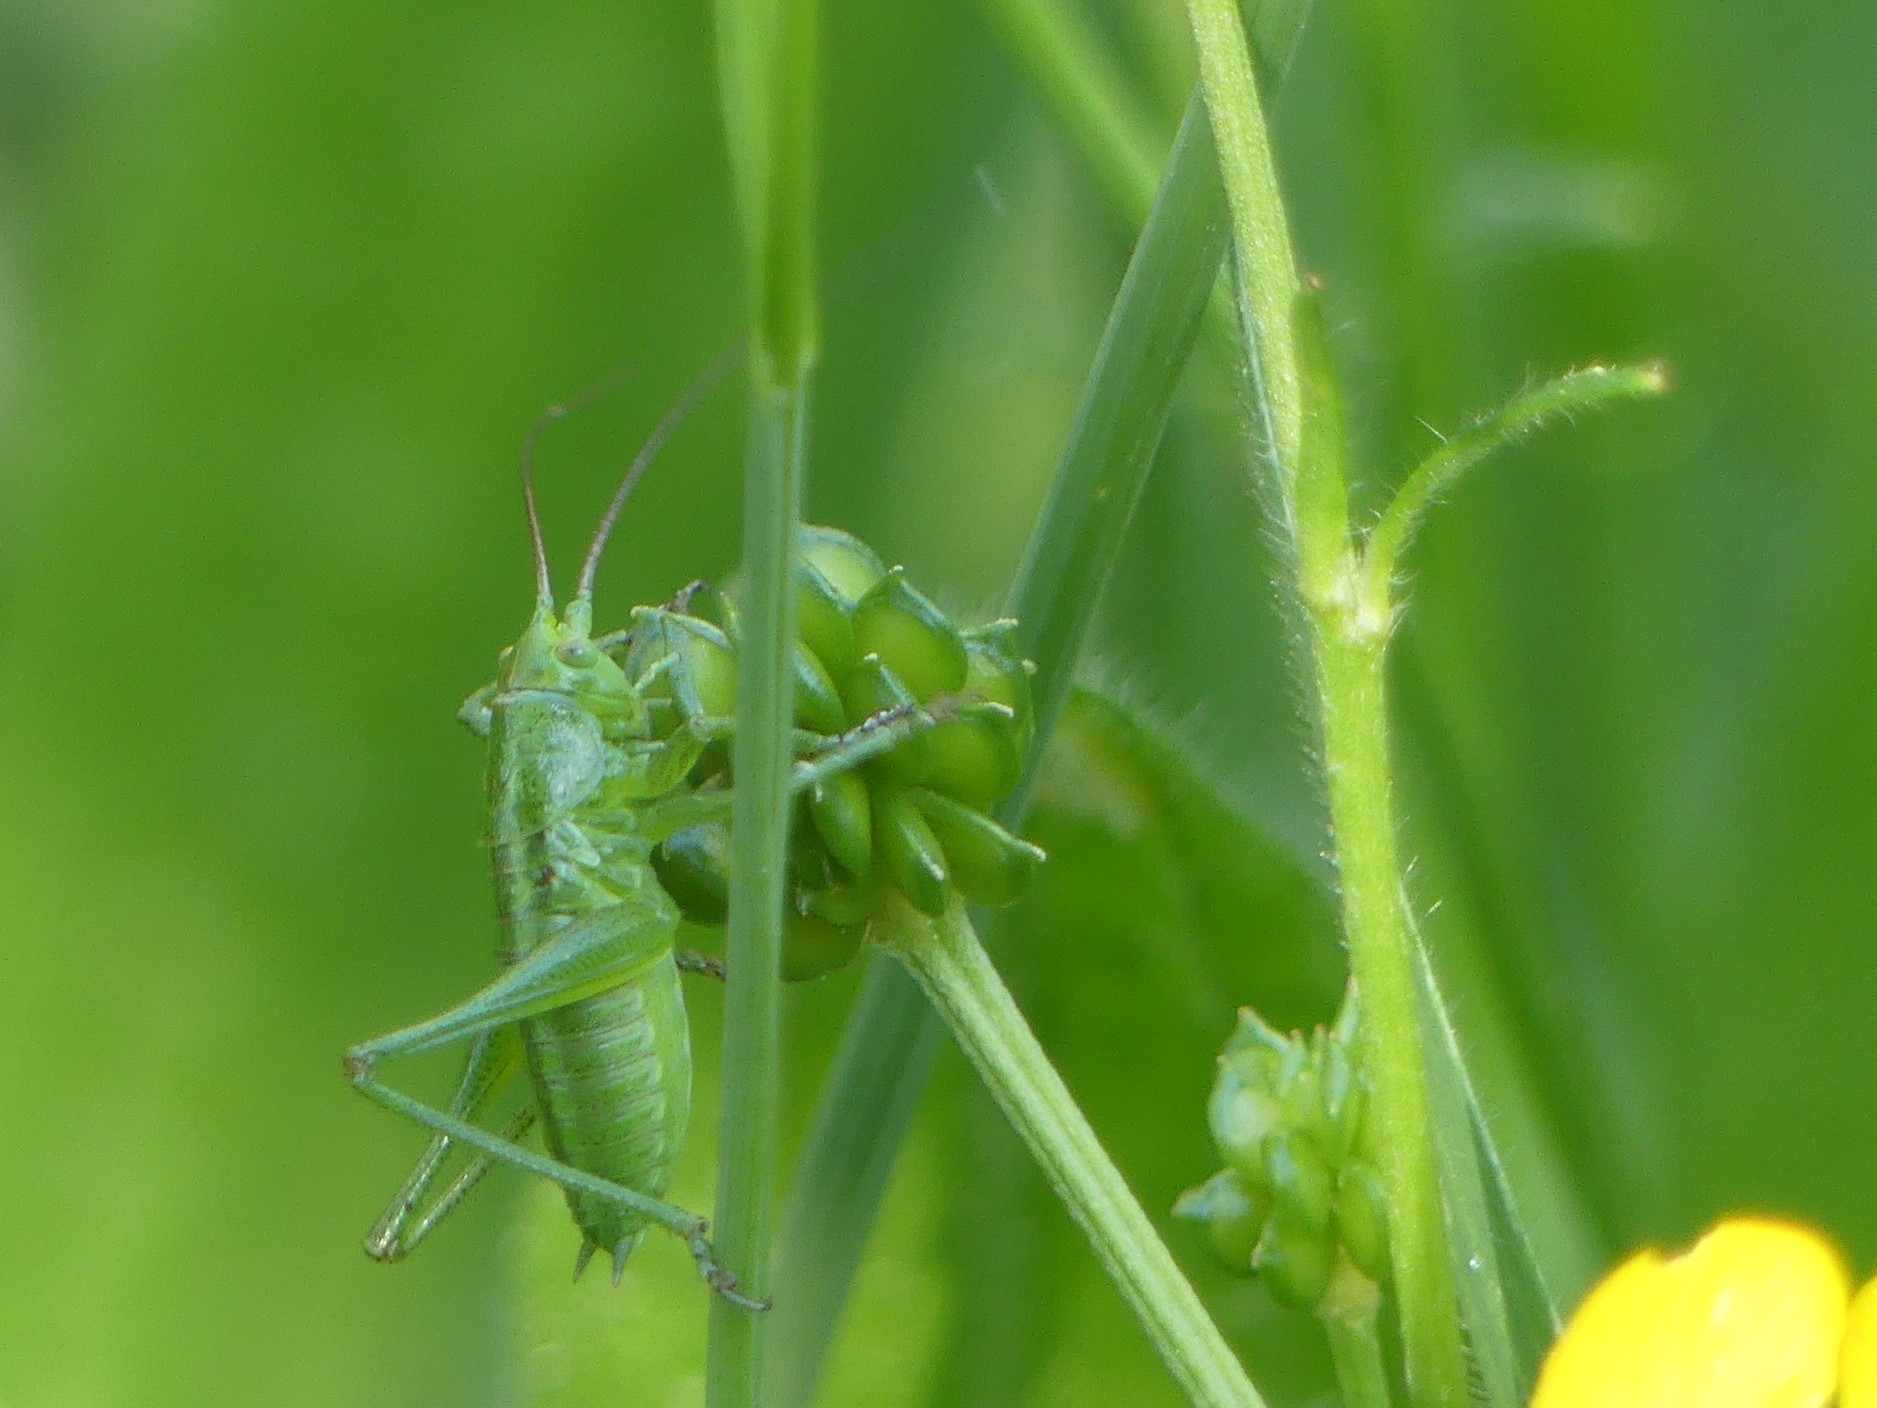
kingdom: Animalia
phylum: Arthropoda
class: Insecta
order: Orthoptera
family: Tettigoniidae
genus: Tettigonia
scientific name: Tettigonia viridissima
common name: Great green bush-cricket
